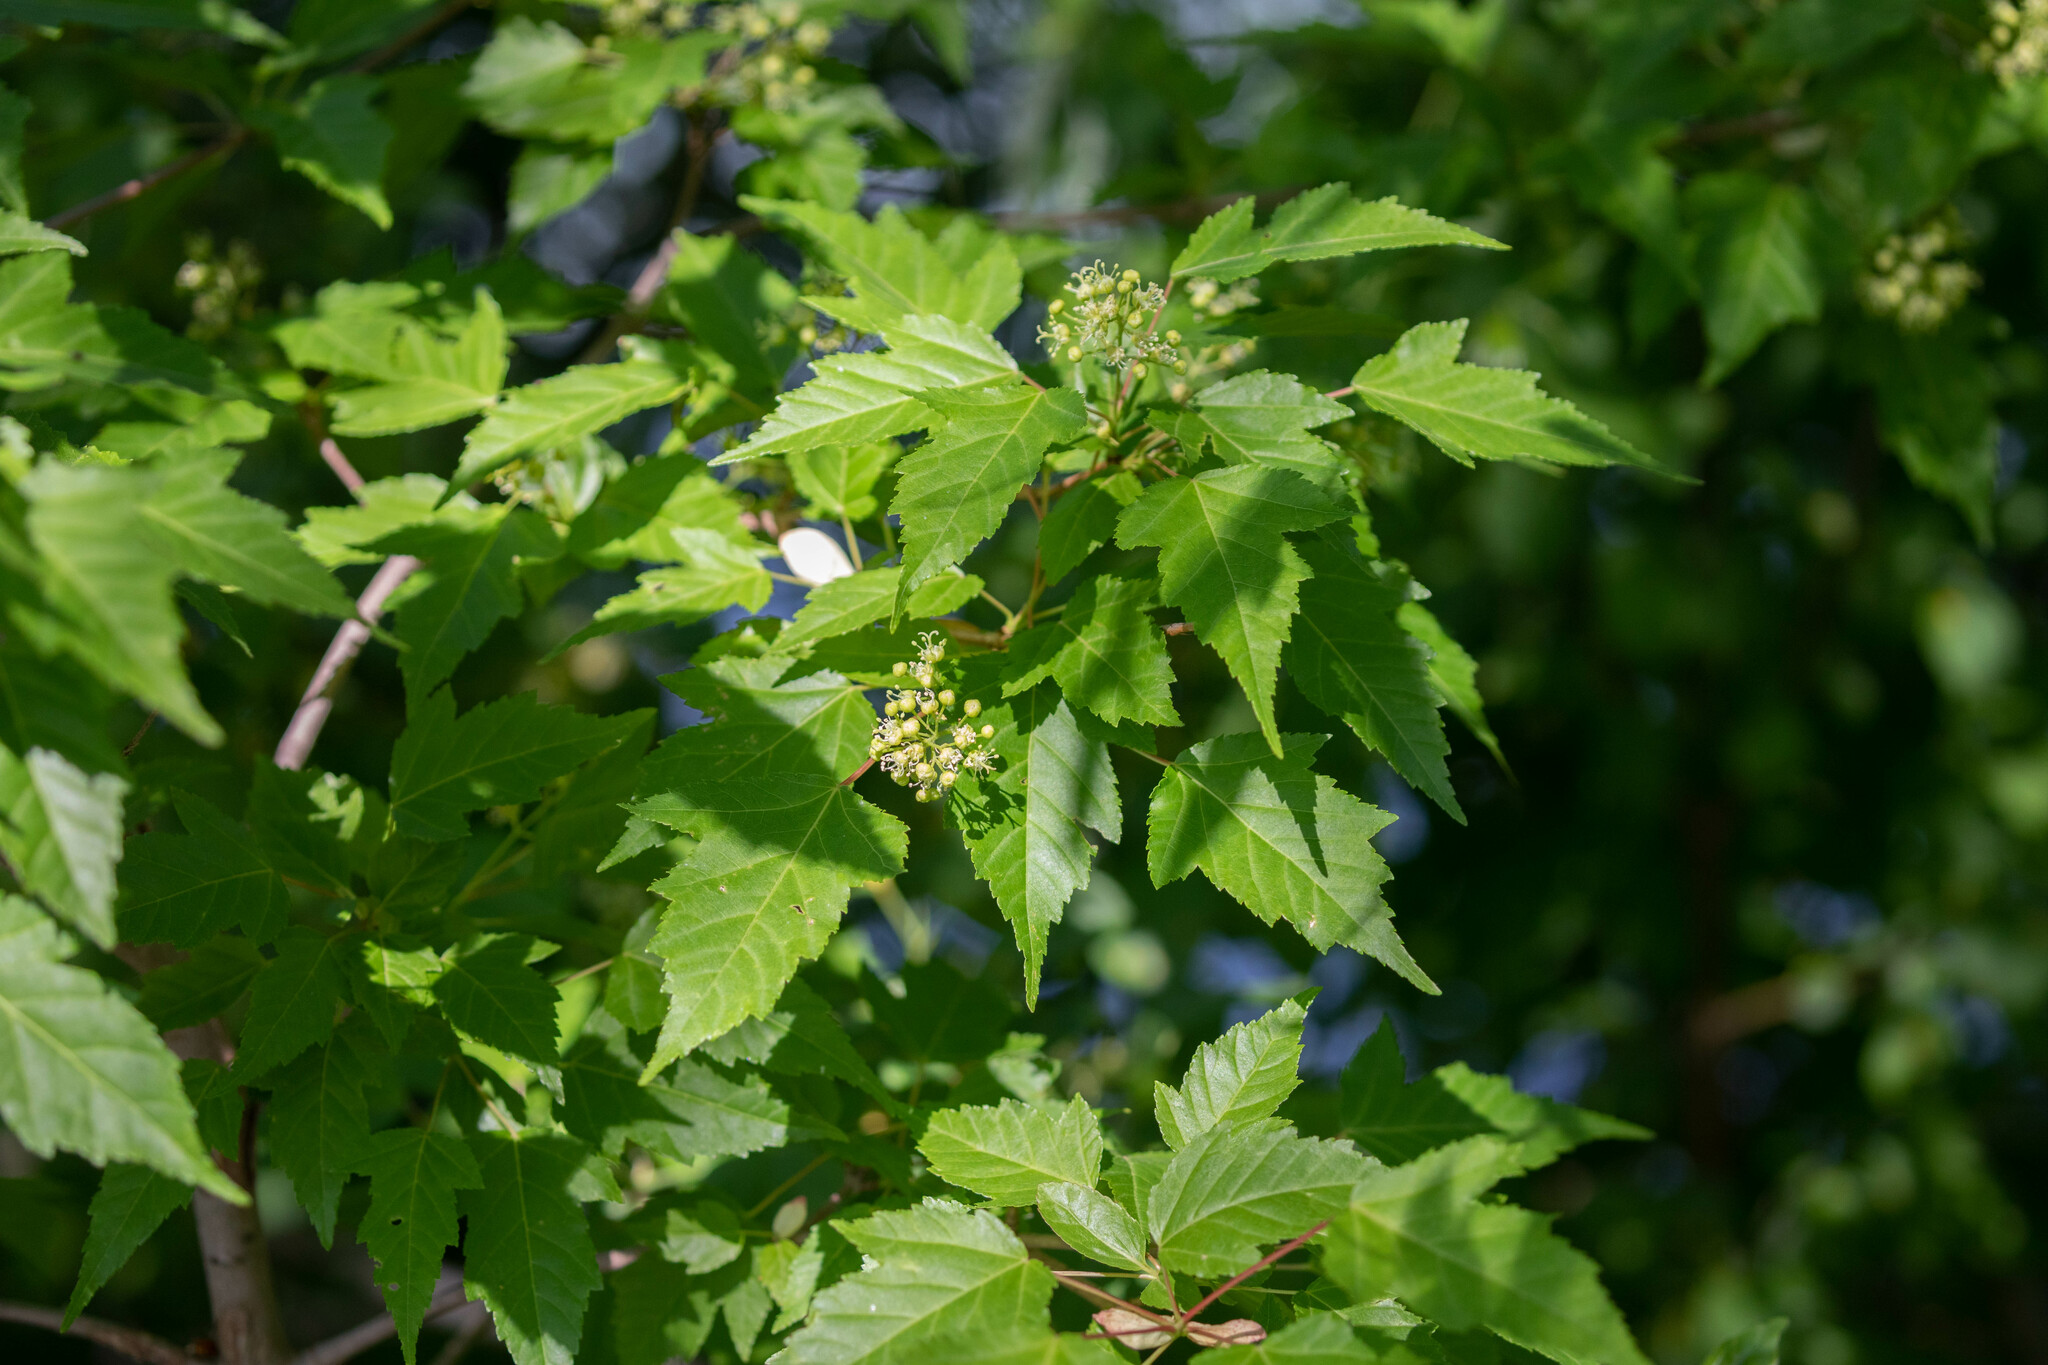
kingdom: Plantae
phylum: Tracheophyta
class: Magnoliopsida
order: Sapindales
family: Sapindaceae
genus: Acer
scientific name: Acer tataricum
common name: Tartar maple
